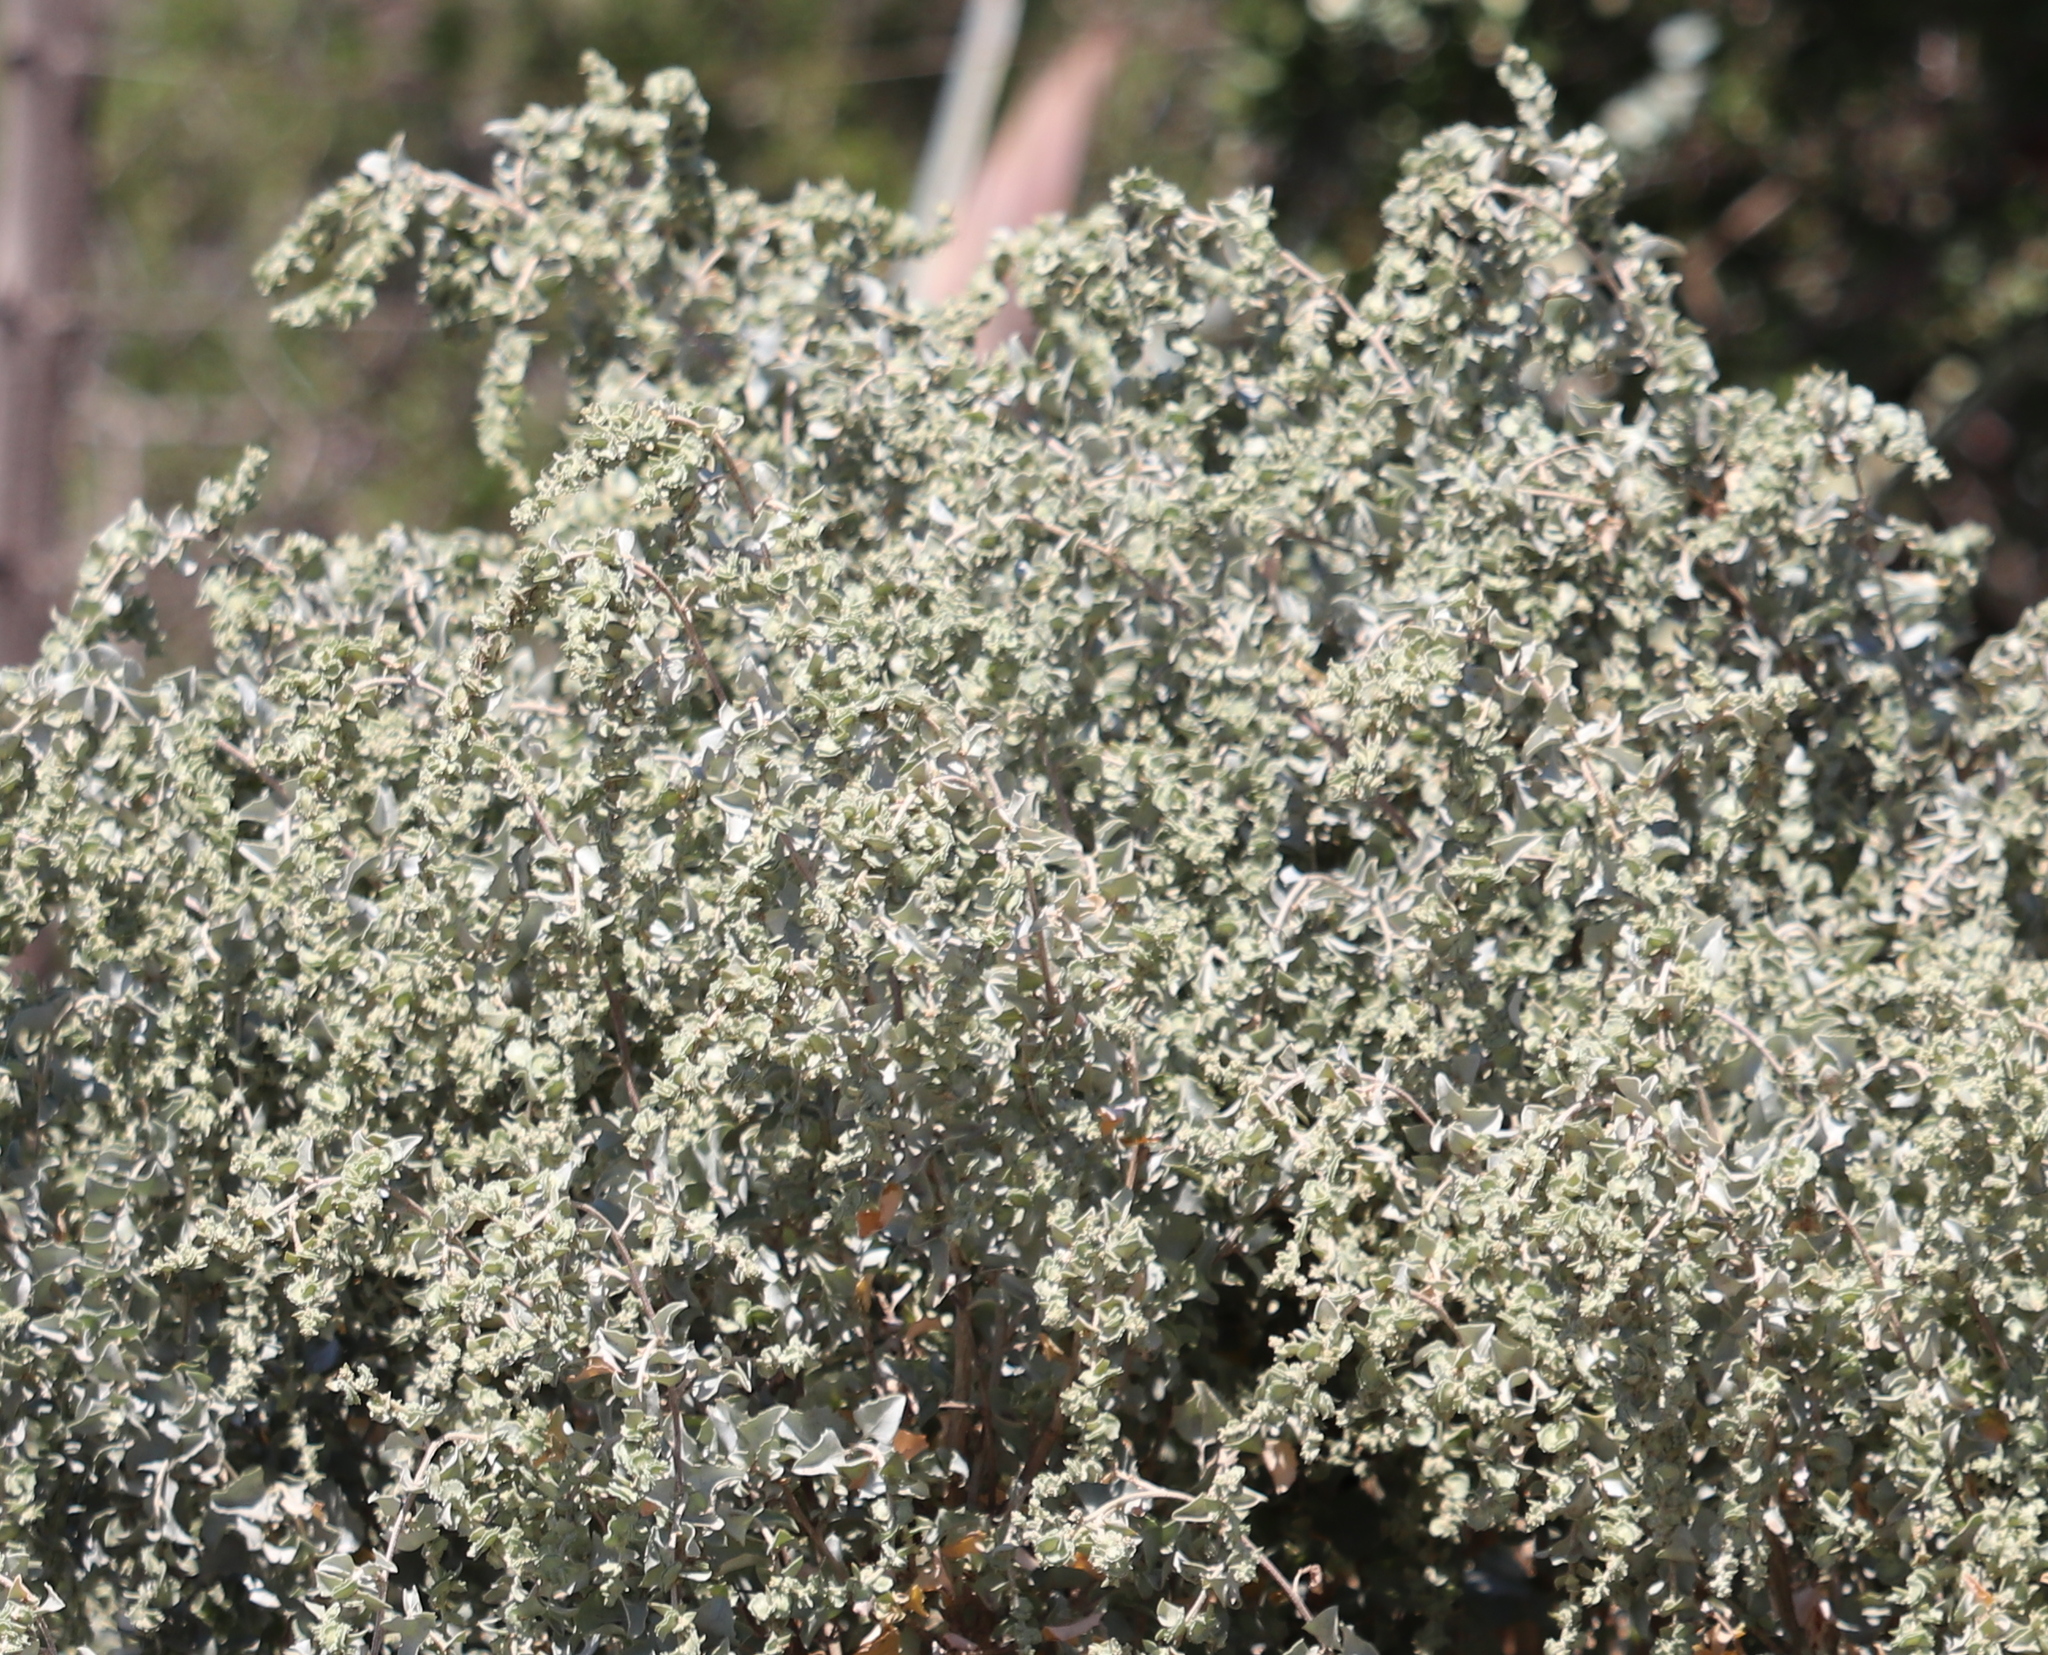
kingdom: Plantae
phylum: Tracheophyta
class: Magnoliopsida
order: Caryophyllales
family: Amaranthaceae
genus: Atriplex
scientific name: Atriplex nummularia
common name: Bluegreen saltbush
